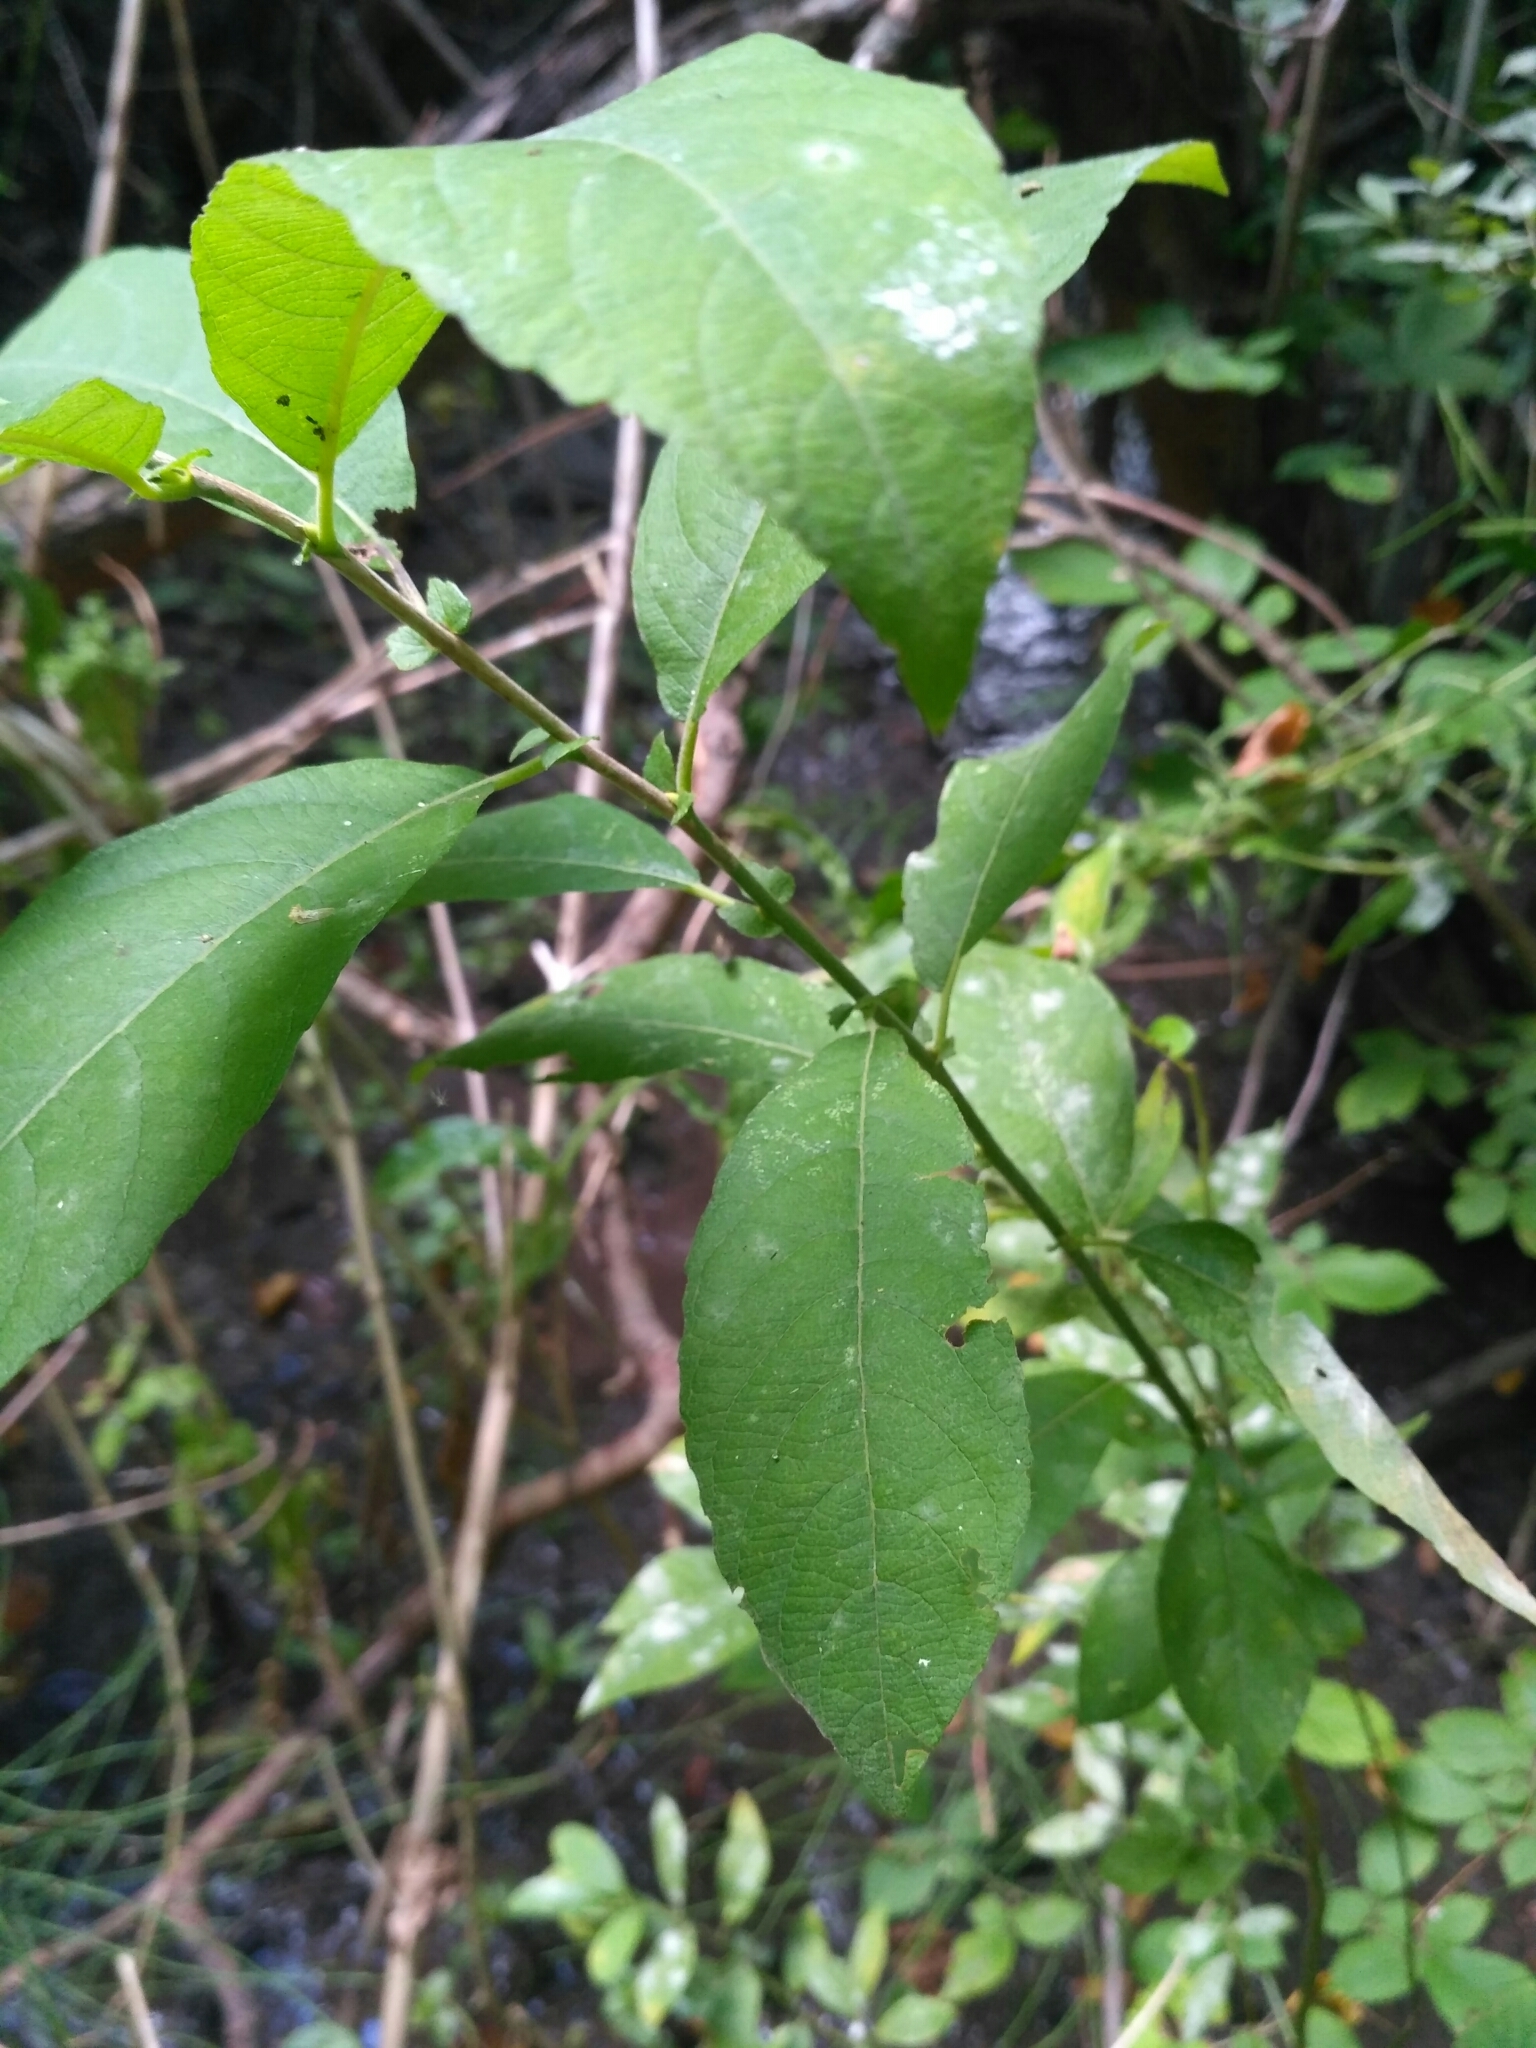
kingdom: Plantae
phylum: Tracheophyta
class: Magnoliopsida
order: Malpighiales
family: Salicaceae
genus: Salix
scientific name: Salix cinerea
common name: Common sallow
